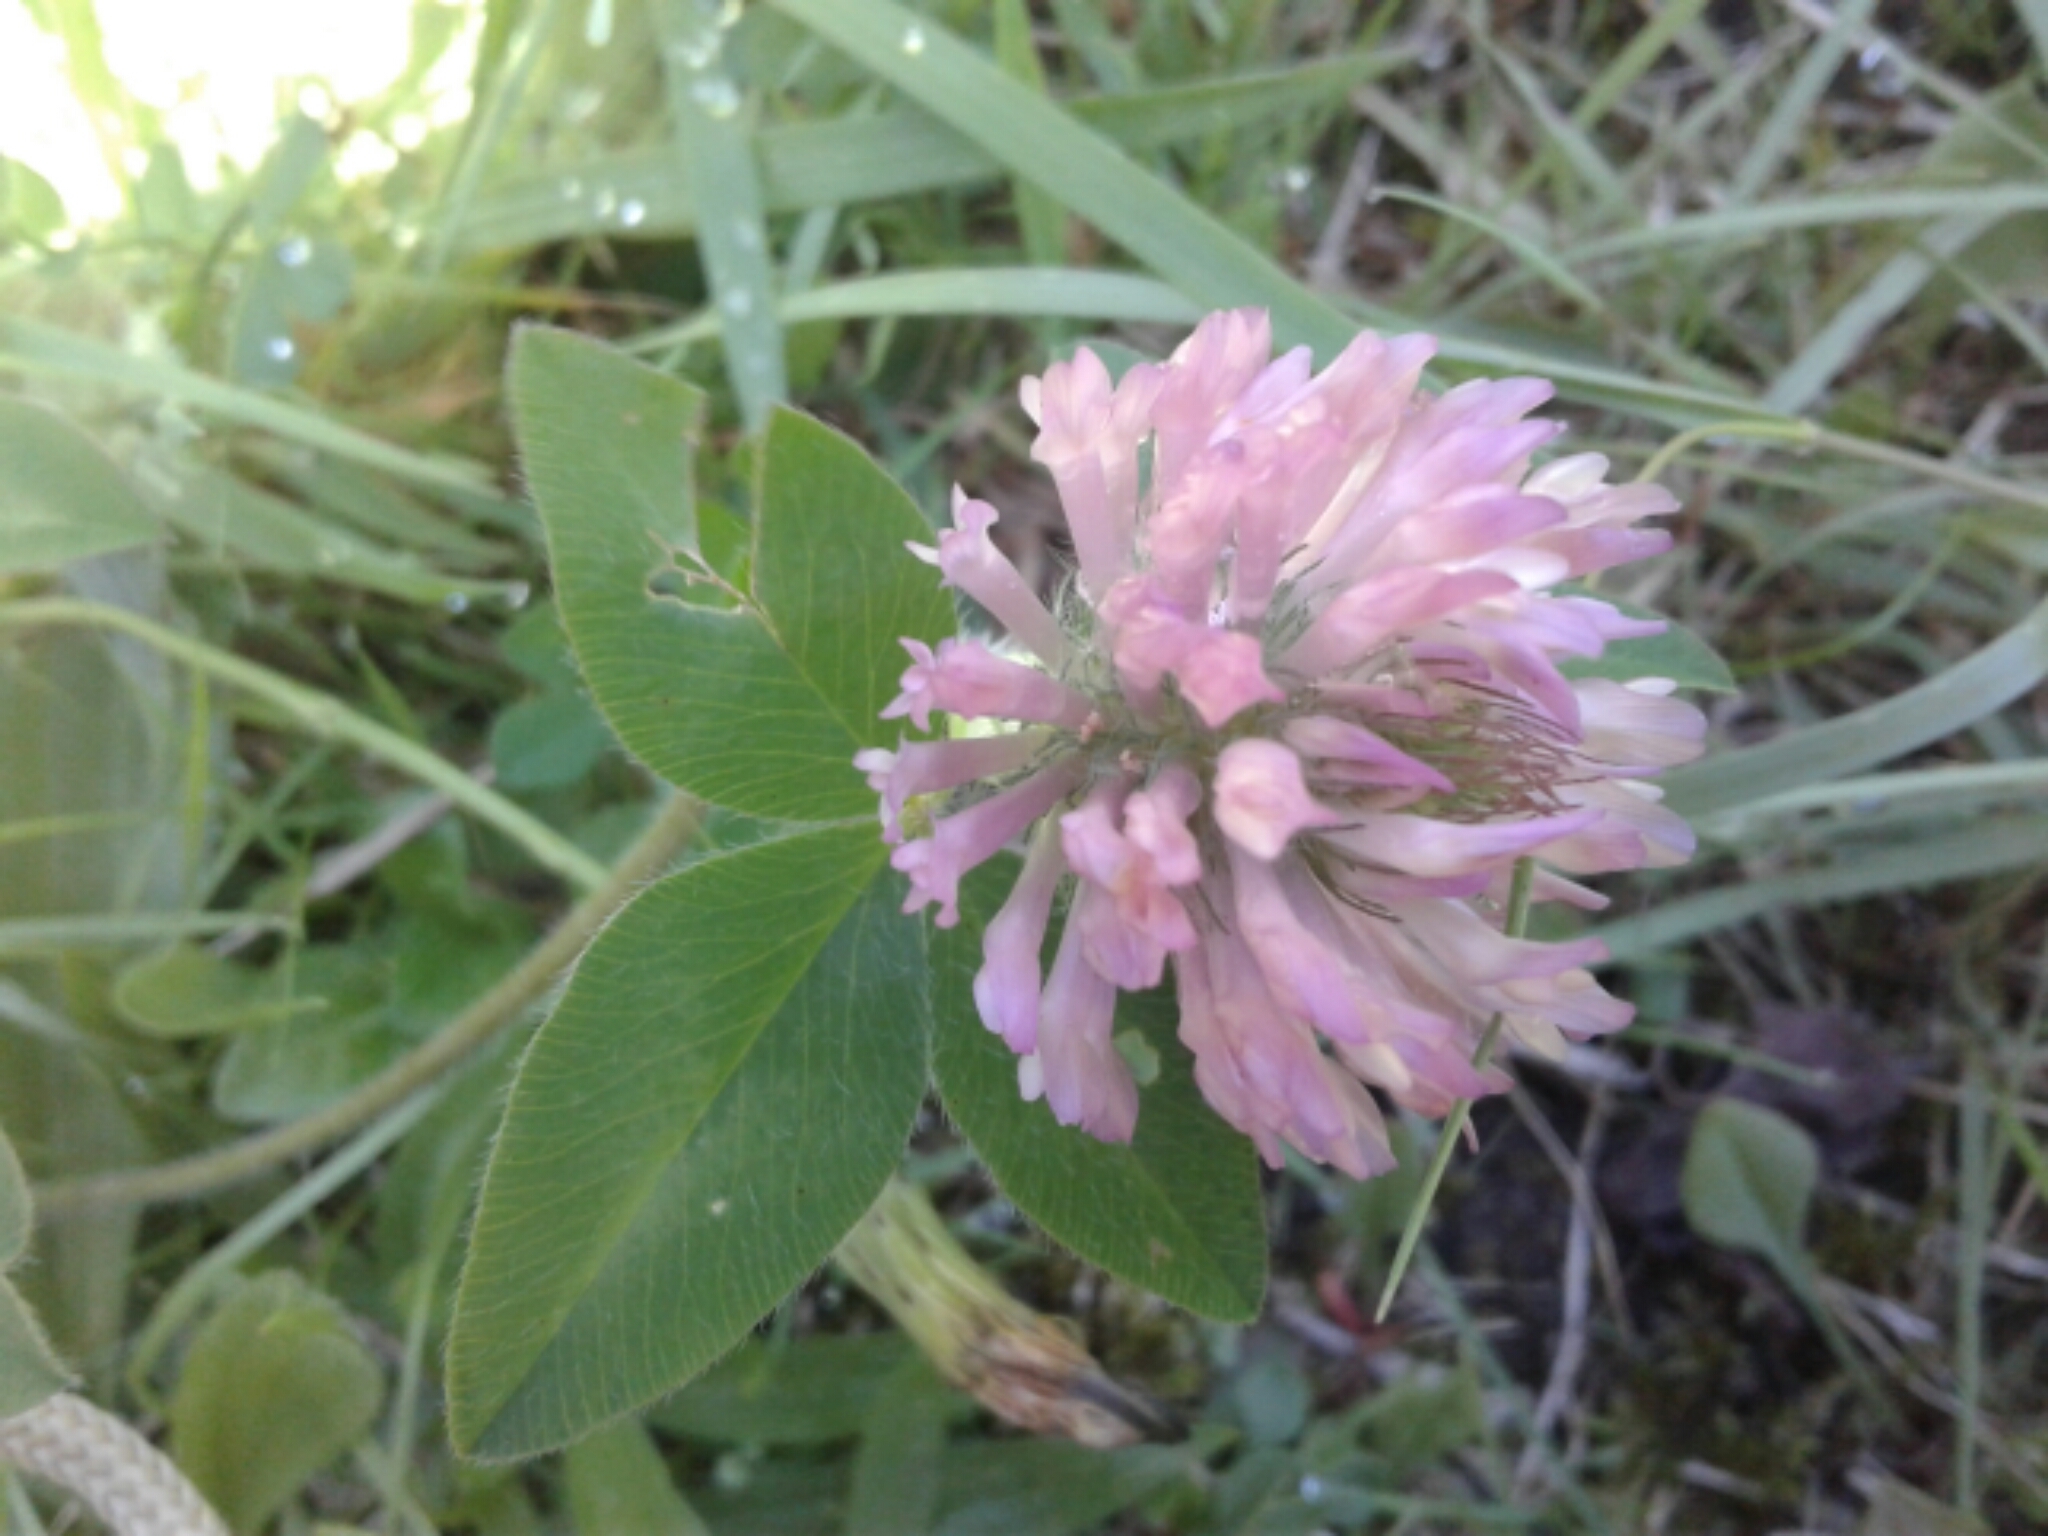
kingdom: Plantae
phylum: Tracheophyta
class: Magnoliopsida
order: Fabales
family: Fabaceae
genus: Trifolium
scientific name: Trifolium pratense
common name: Red clover
